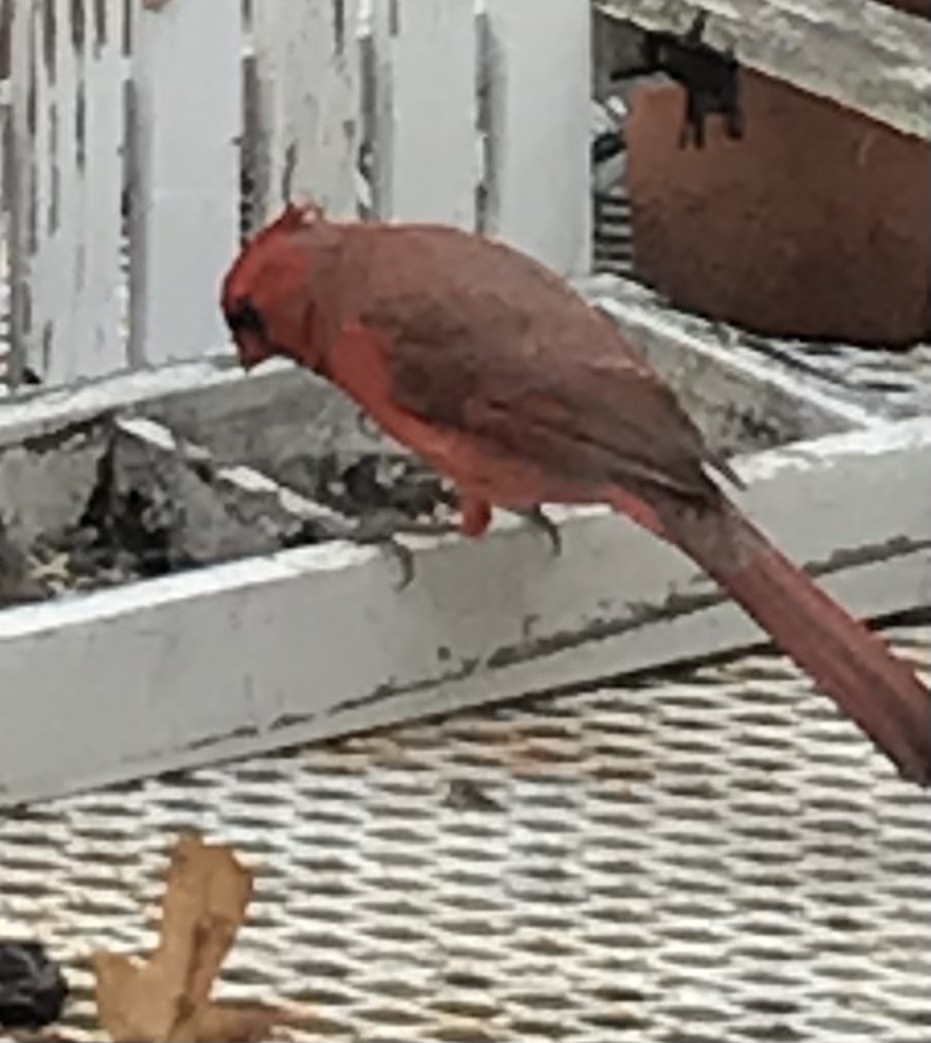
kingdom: Animalia
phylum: Chordata
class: Aves
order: Passeriformes
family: Cardinalidae
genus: Cardinalis
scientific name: Cardinalis cardinalis
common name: Northern cardinal
